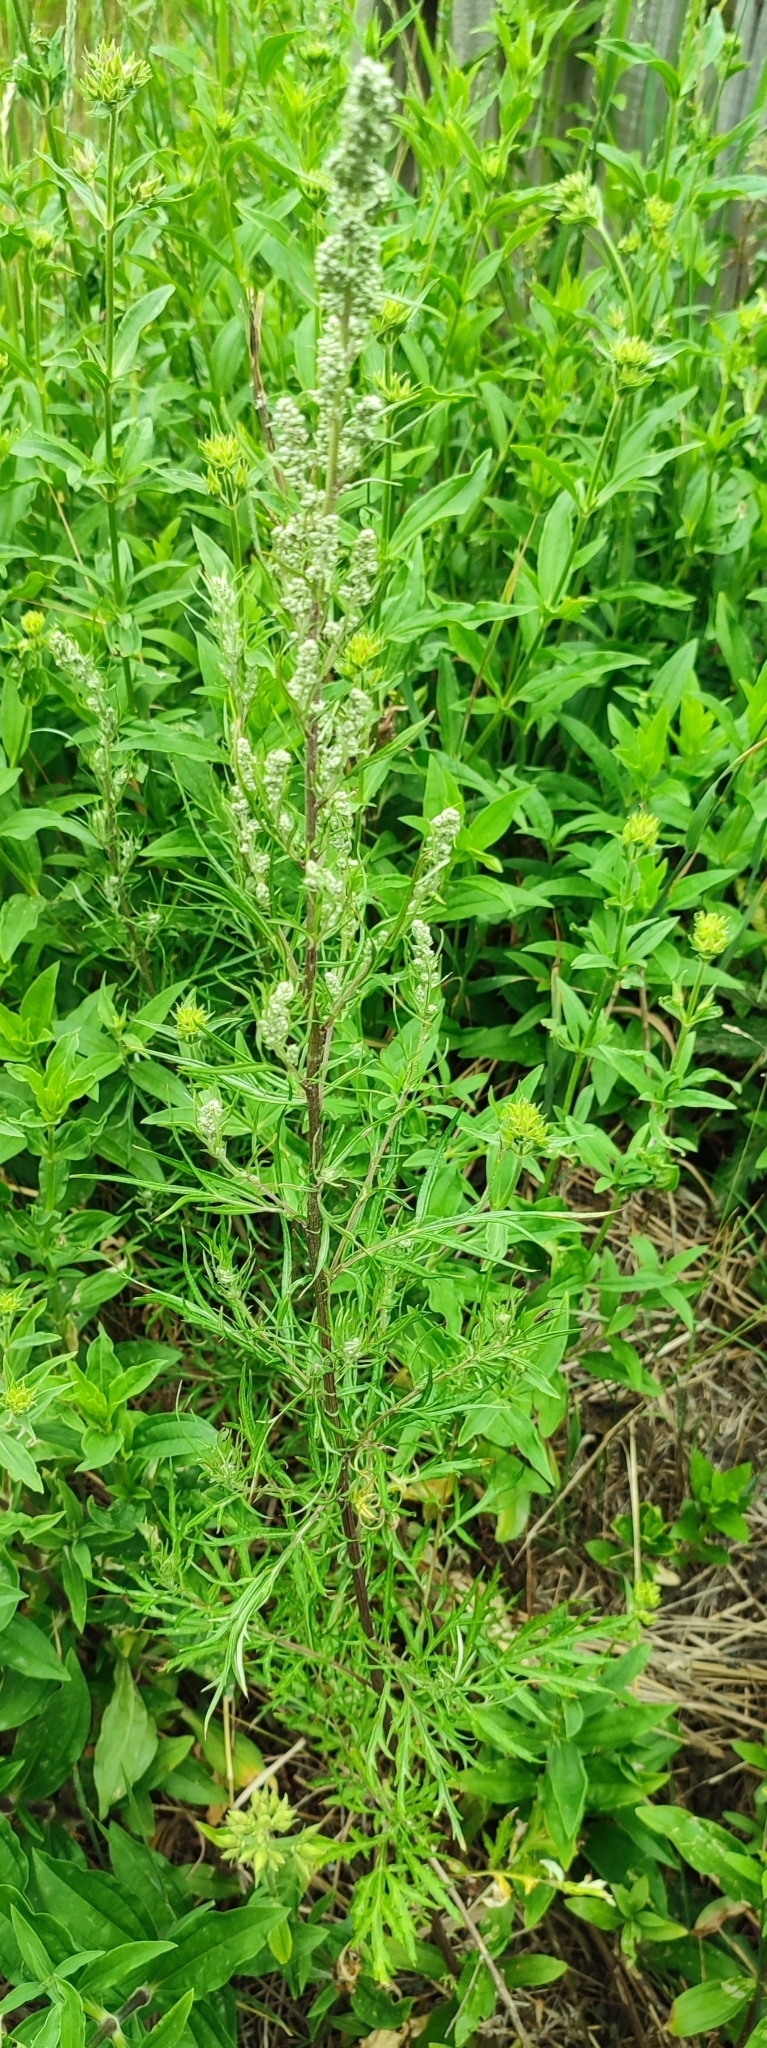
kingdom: Plantae
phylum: Tracheophyta
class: Magnoliopsida
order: Asterales
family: Asteraceae
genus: Artemisia
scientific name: Artemisia vulgaris
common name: Mugwort
